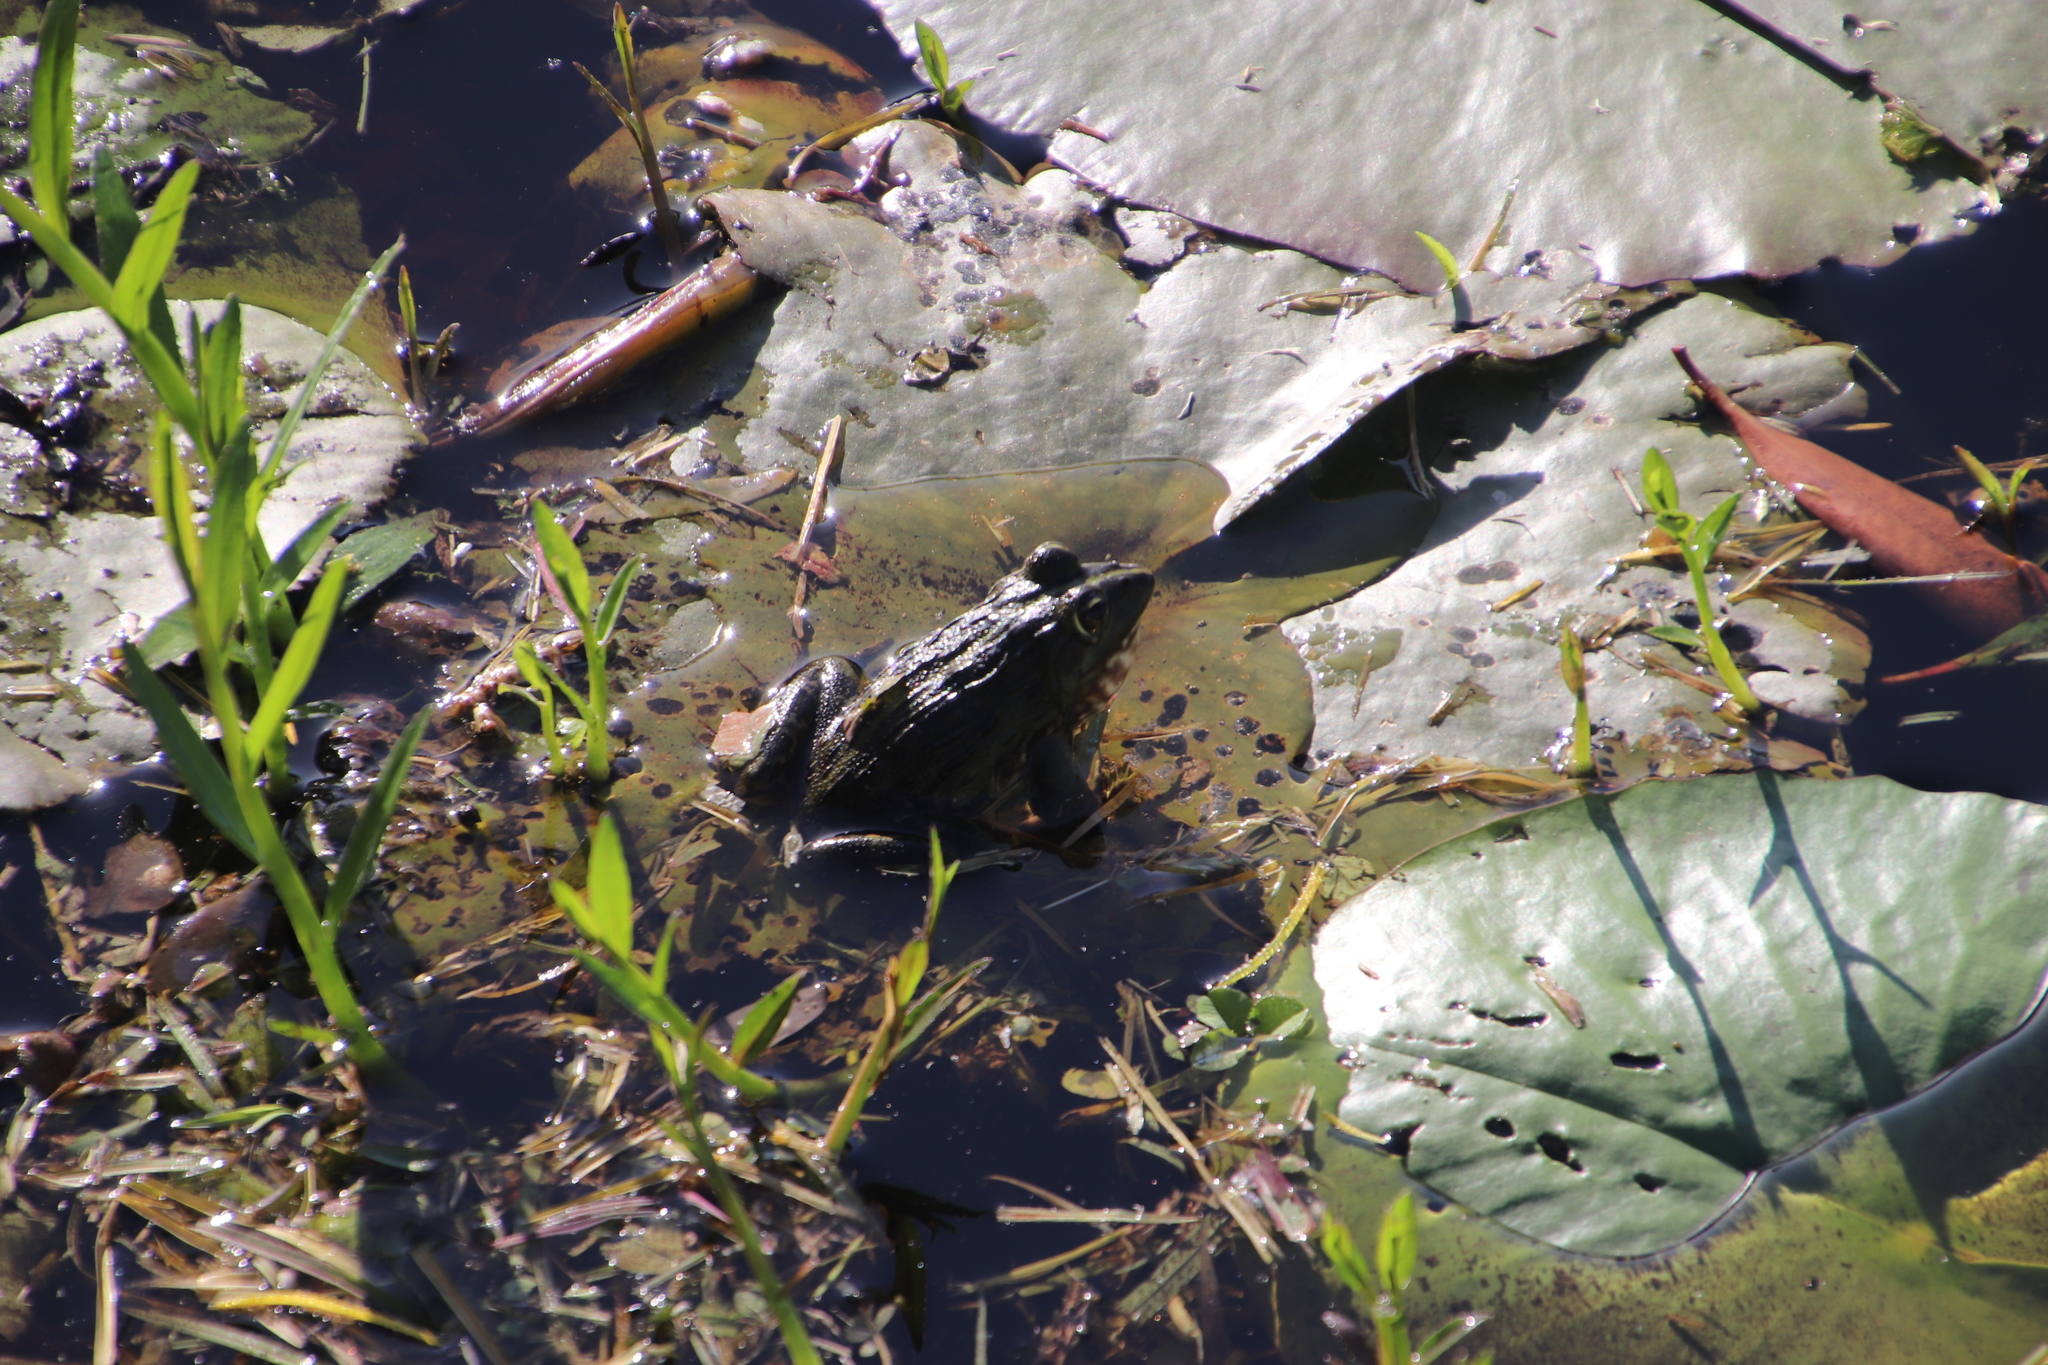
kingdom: Animalia
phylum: Chordata
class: Amphibia
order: Anura
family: Pyxicephalidae
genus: Amietia
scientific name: Amietia fuscigula
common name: Cape rana
